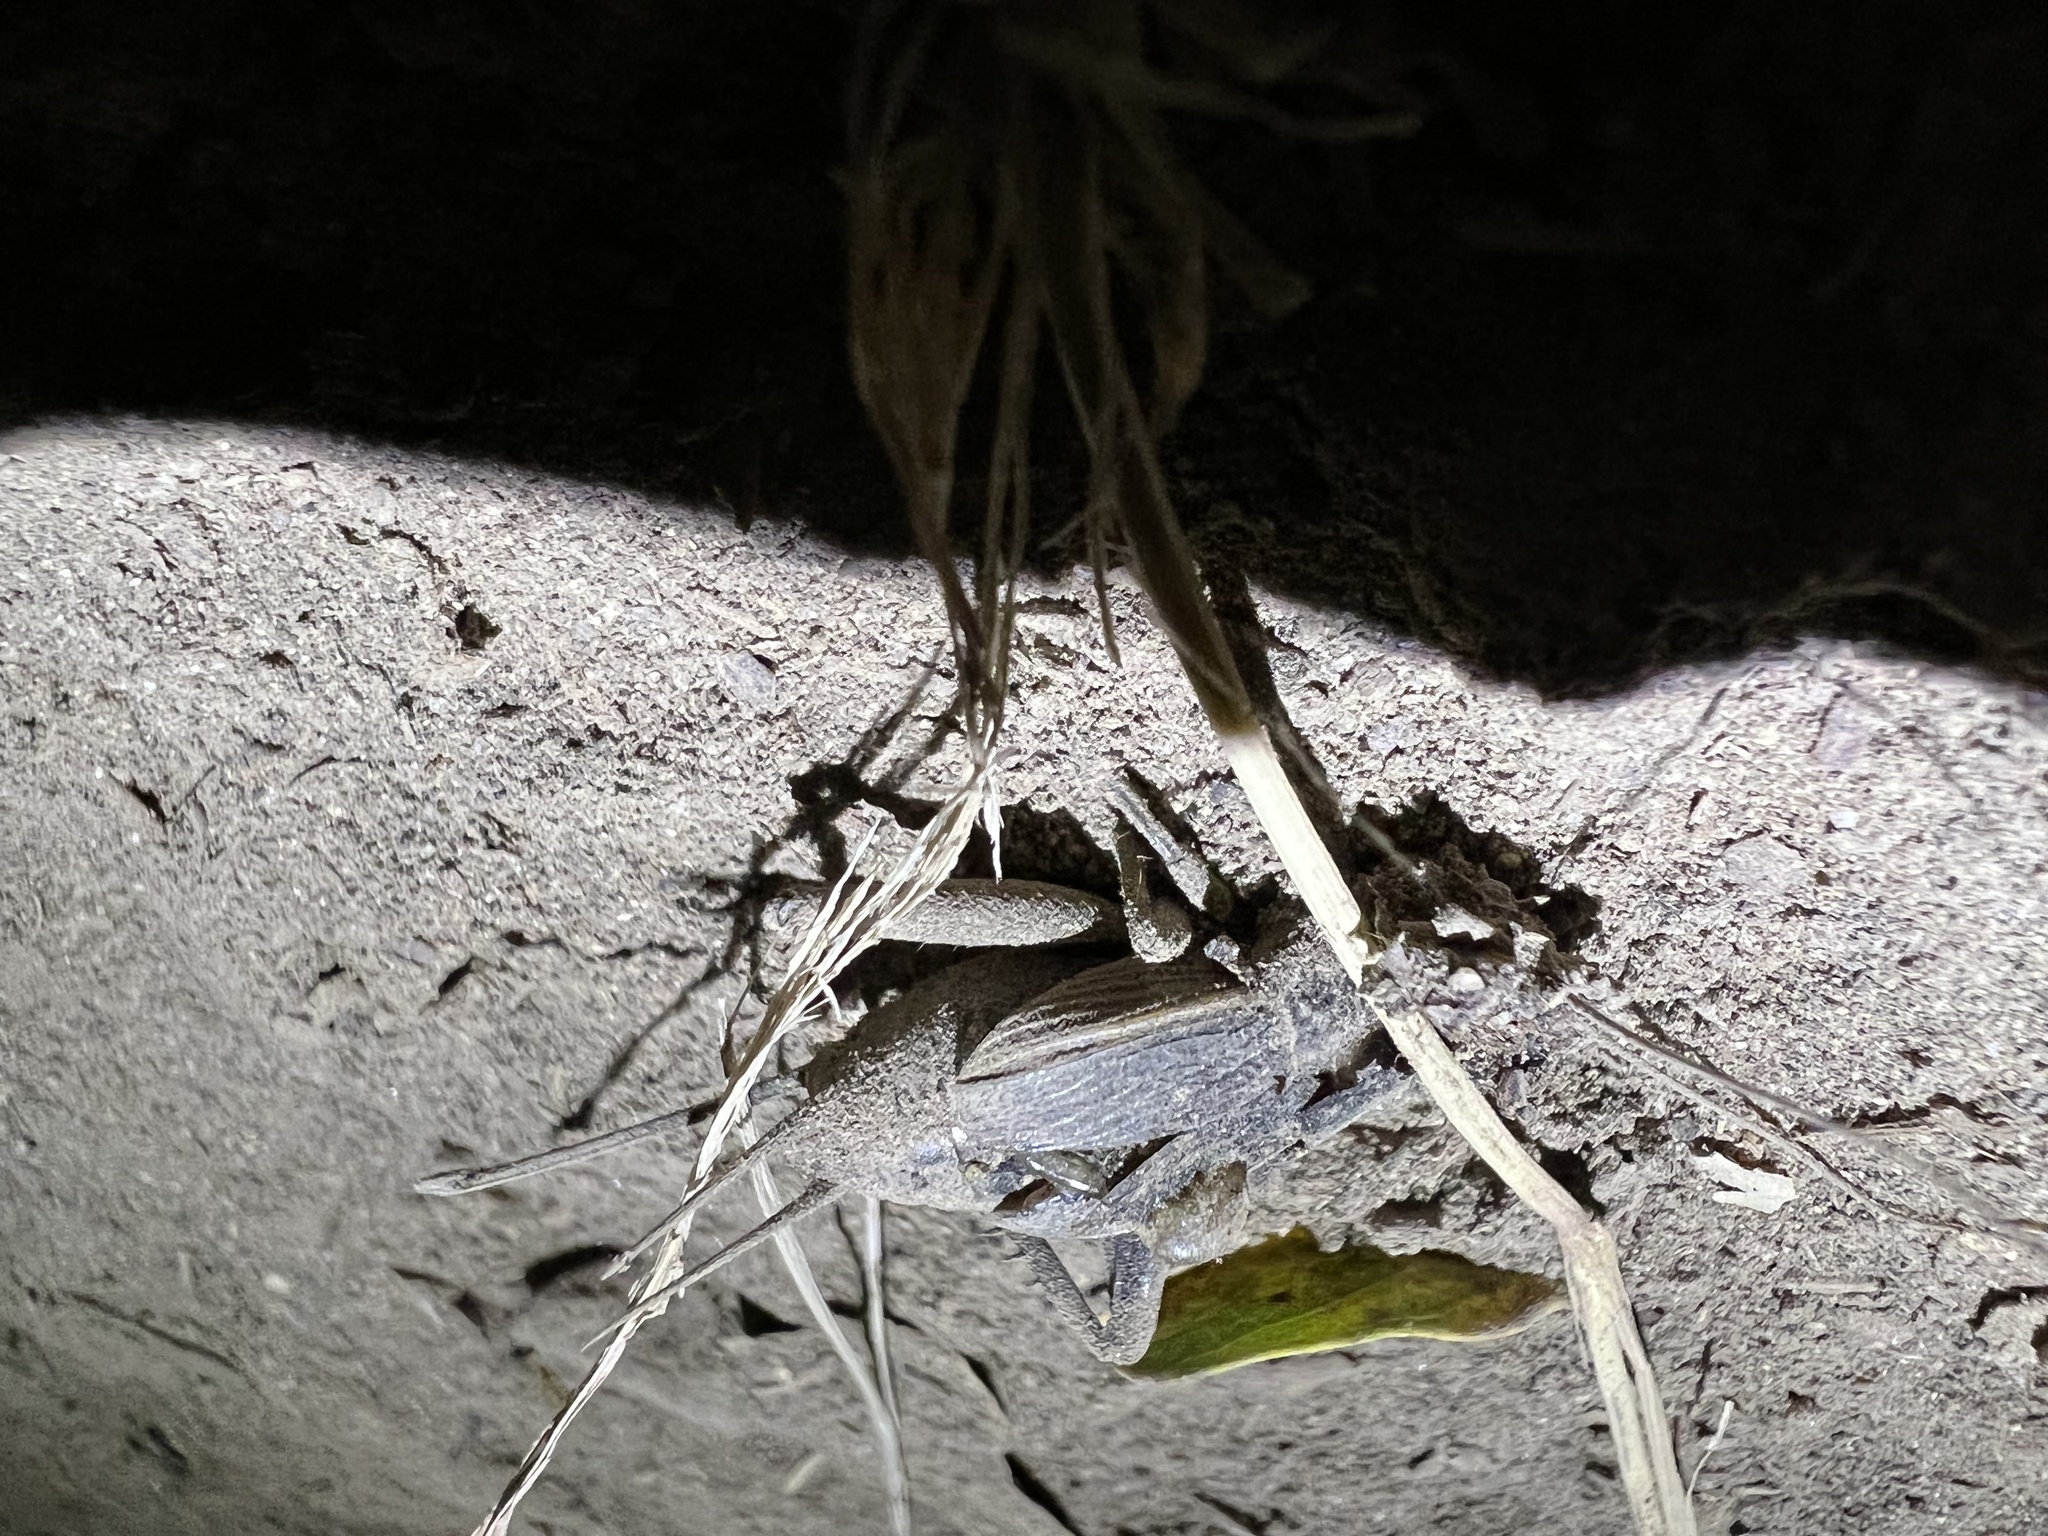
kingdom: Animalia
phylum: Arthropoda
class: Insecta
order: Orthoptera
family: Gryllidae
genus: Gryllus
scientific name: Gryllus pennsylvanicus
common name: Fall field cricket
